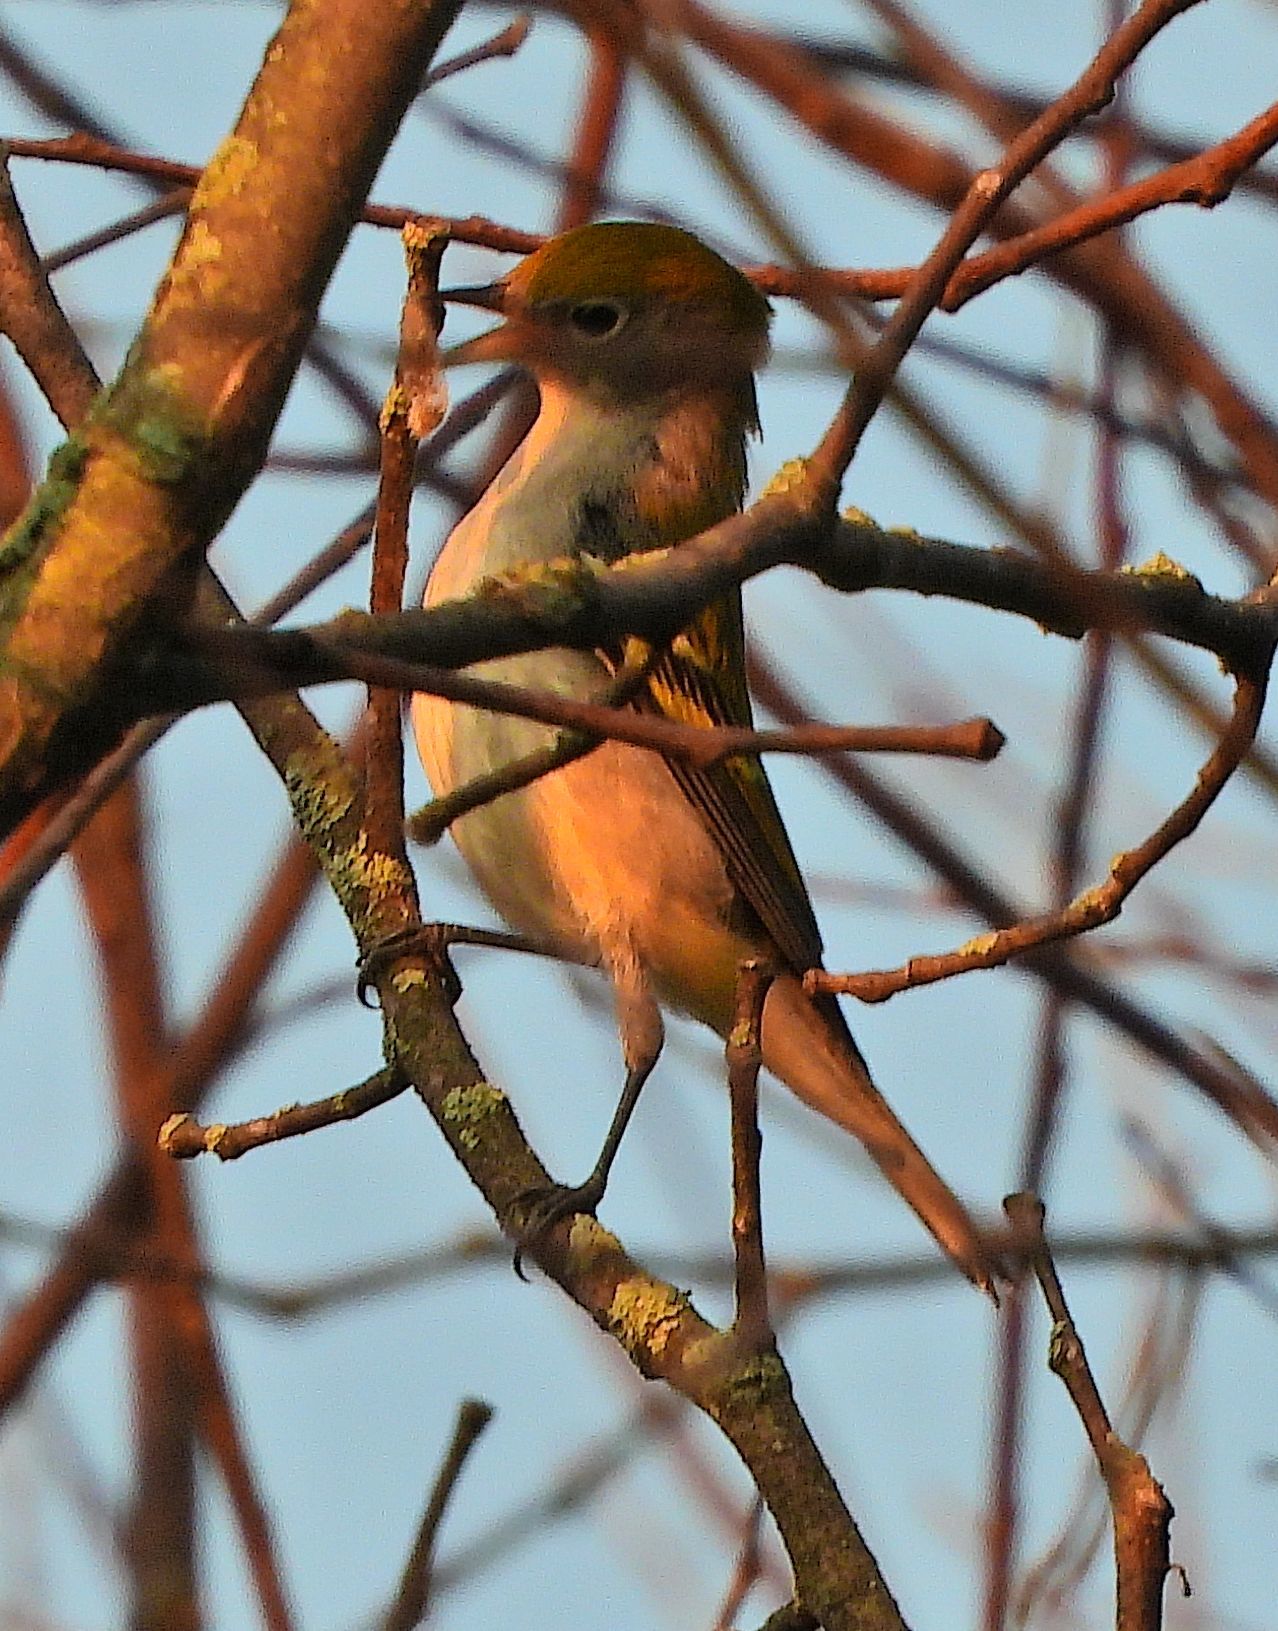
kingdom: Animalia
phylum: Chordata
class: Aves
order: Passeriformes
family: Parulidae
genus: Setophaga
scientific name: Setophaga pensylvanica
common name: Chestnut-sided warbler
